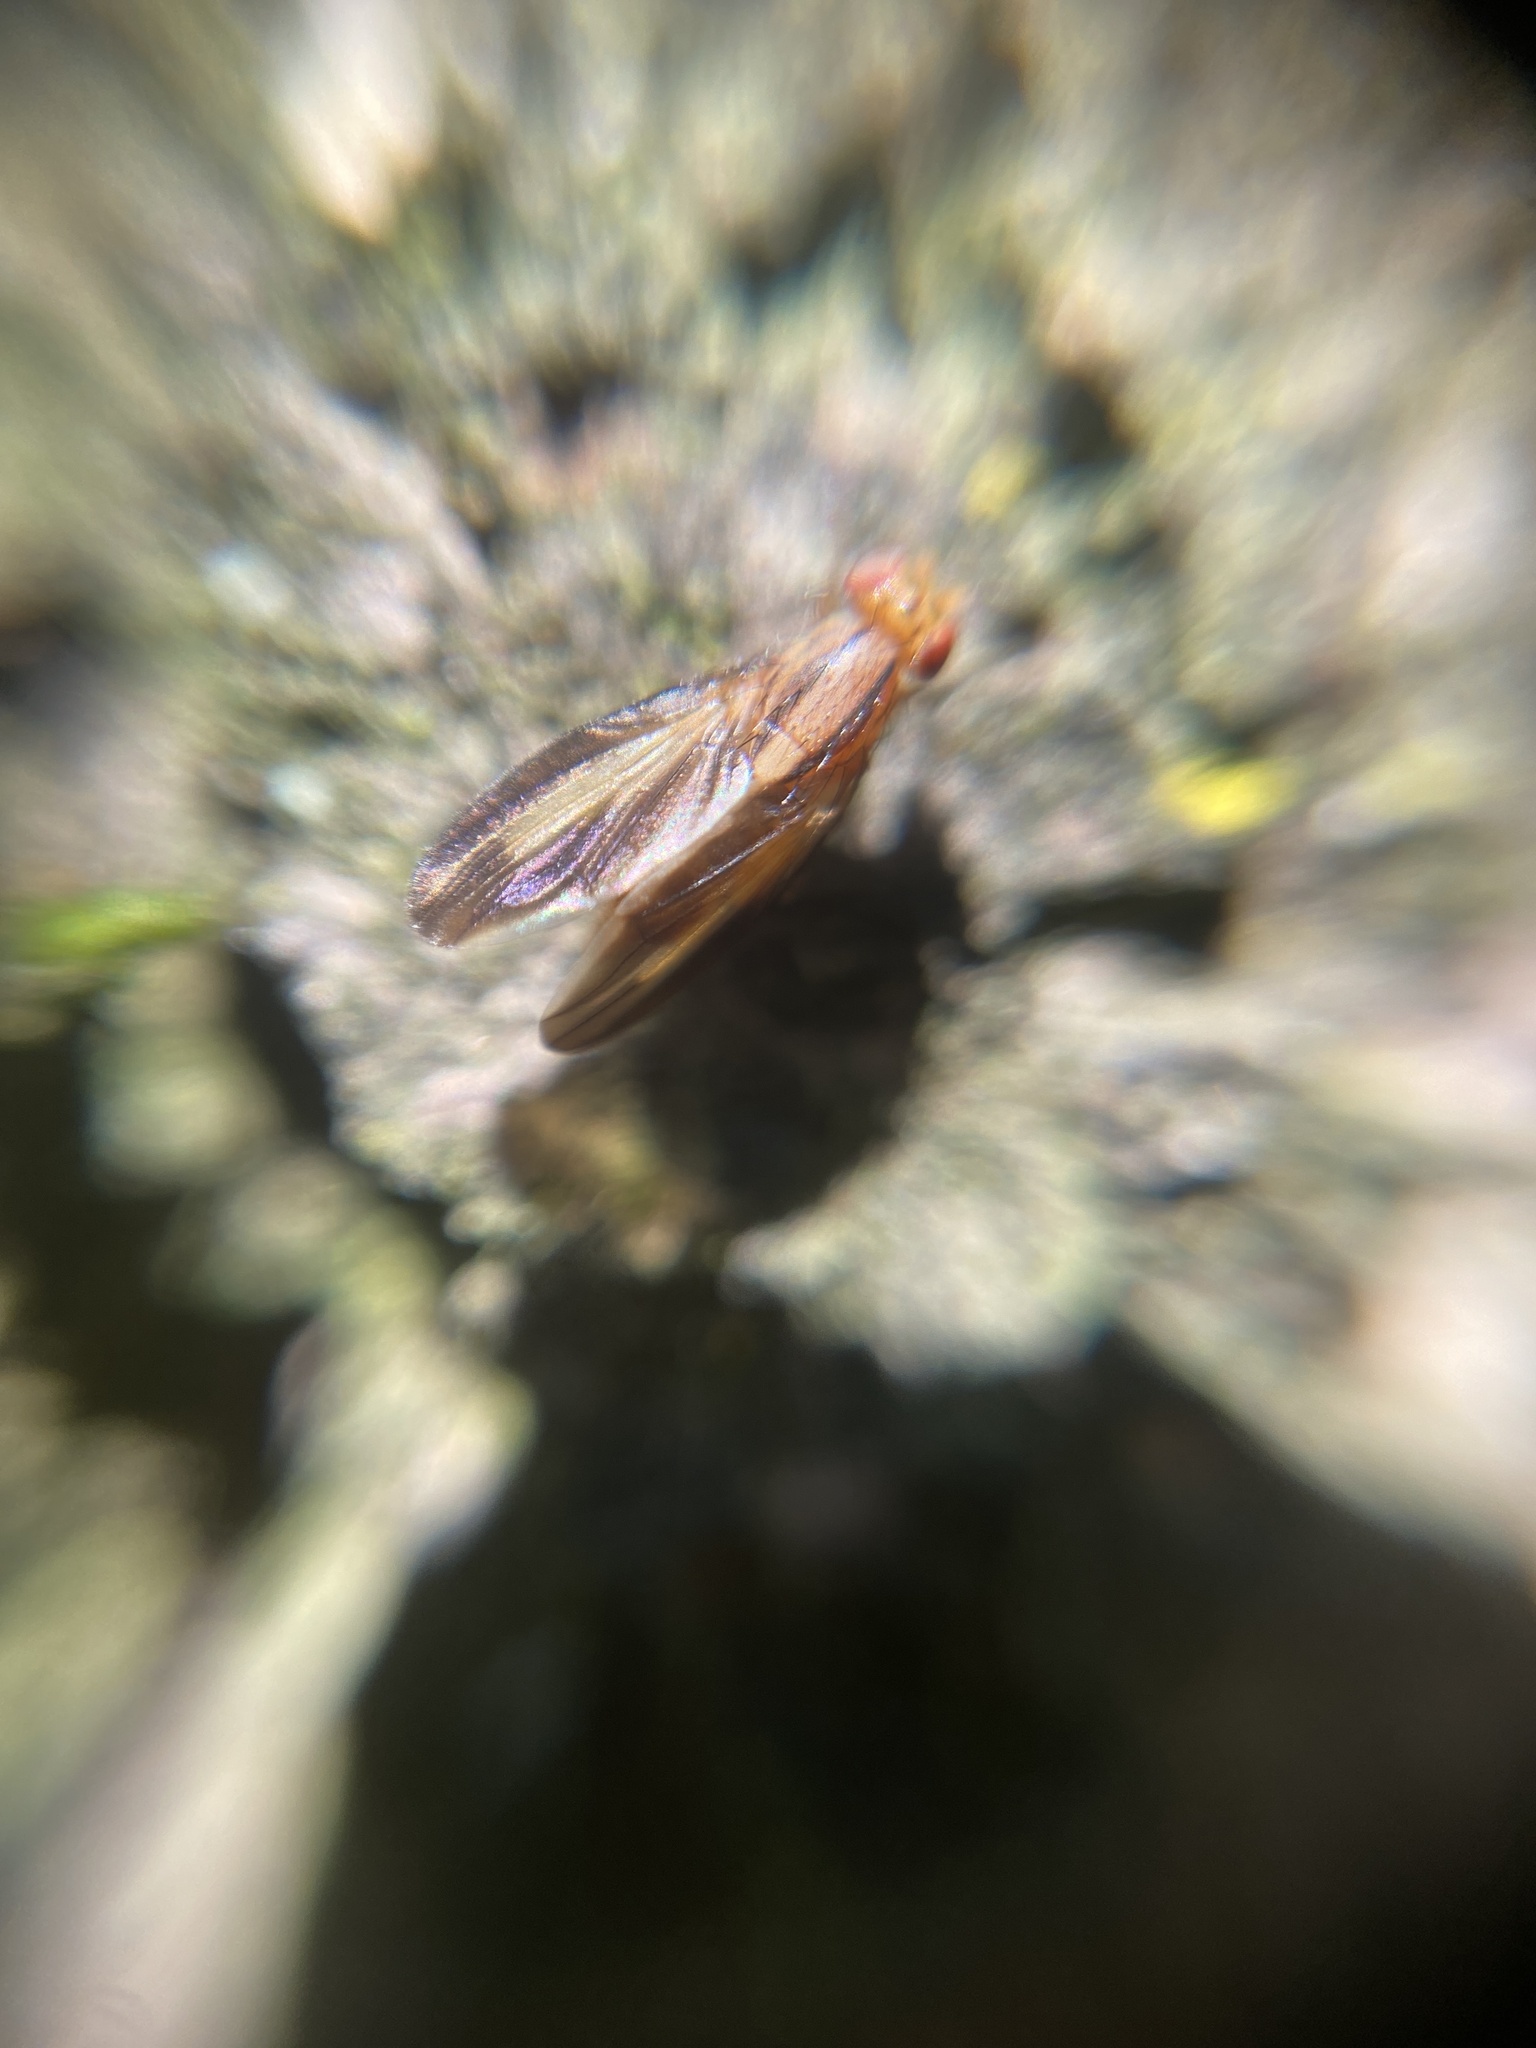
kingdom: Animalia
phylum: Arthropoda
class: Insecta
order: Diptera
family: Lauxaniidae
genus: Peplomyza
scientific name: Peplomyza discoidea
